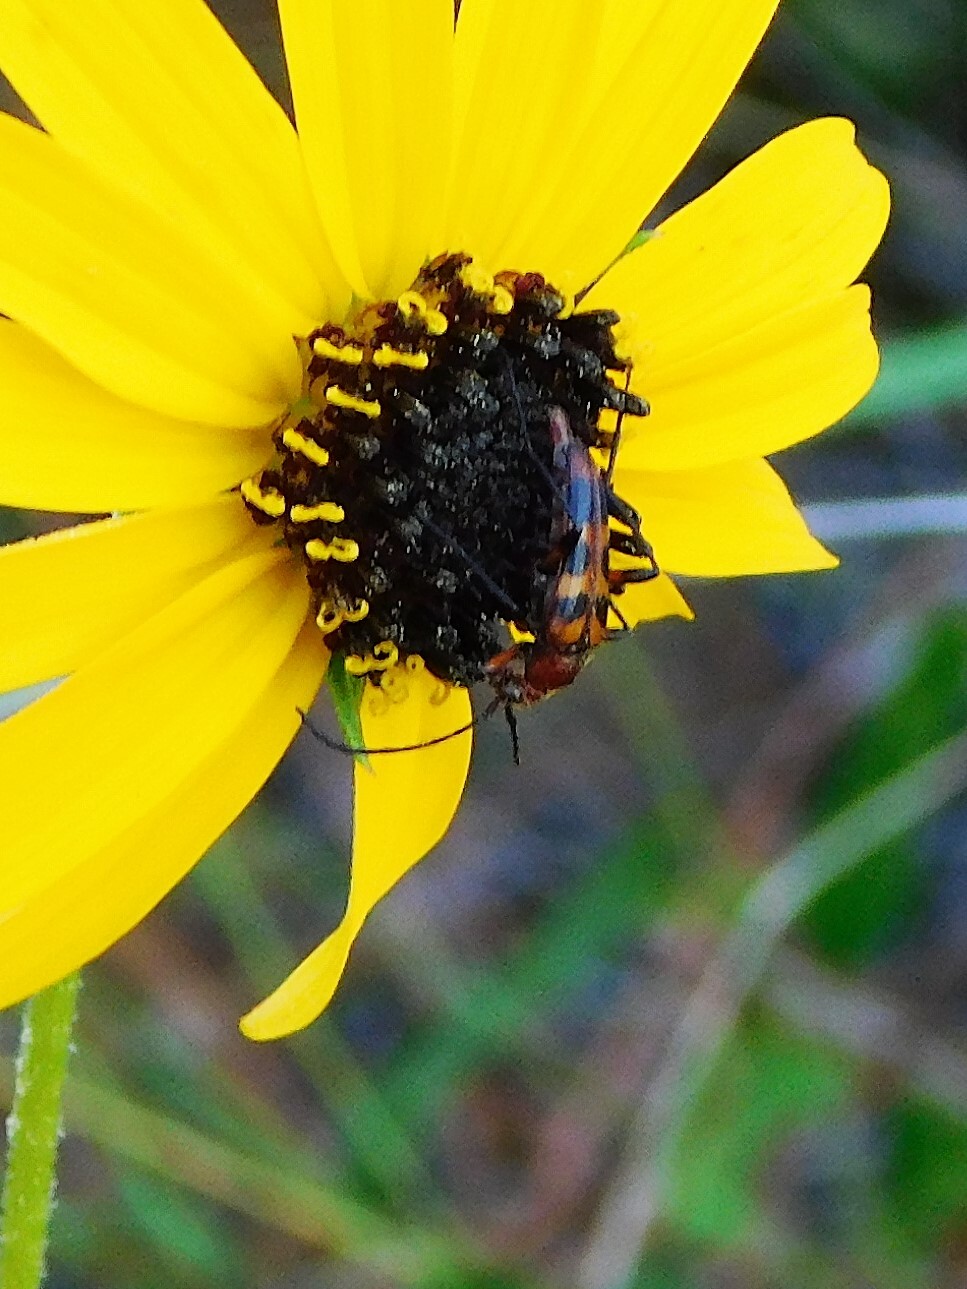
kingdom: Animalia
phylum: Arthropoda
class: Insecta
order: Coleoptera
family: Cerambycidae
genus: Strangalia
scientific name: Strangalia sexnotata
